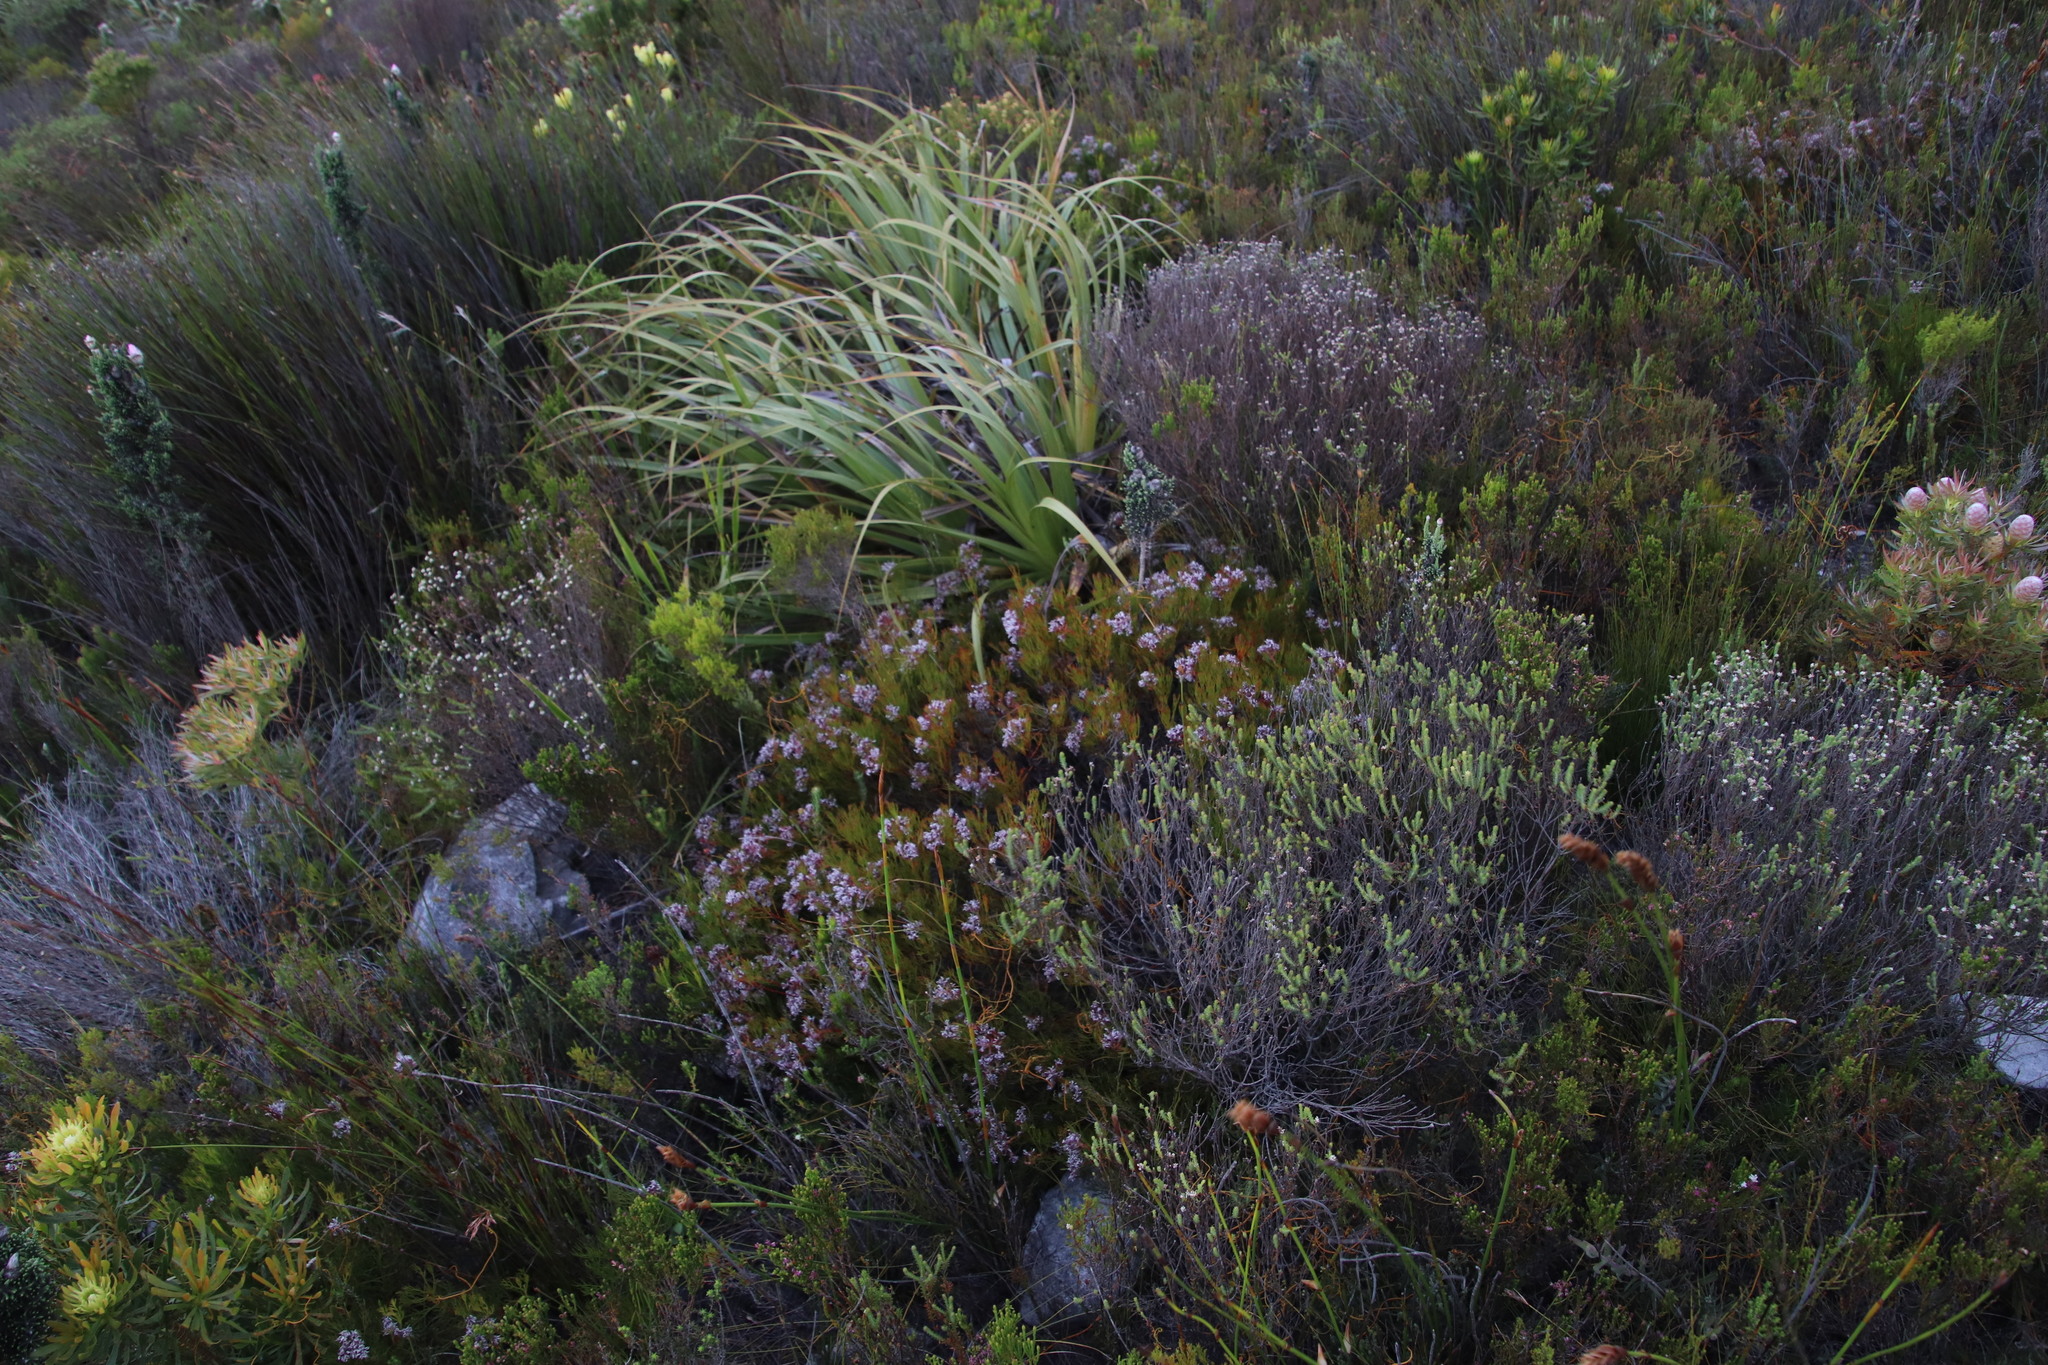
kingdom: Plantae
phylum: Tracheophyta
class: Magnoliopsida
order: Proteales
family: Proteaceae
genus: Serruria
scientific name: Serruria rubricaulis
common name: Red-stem spiderhead
